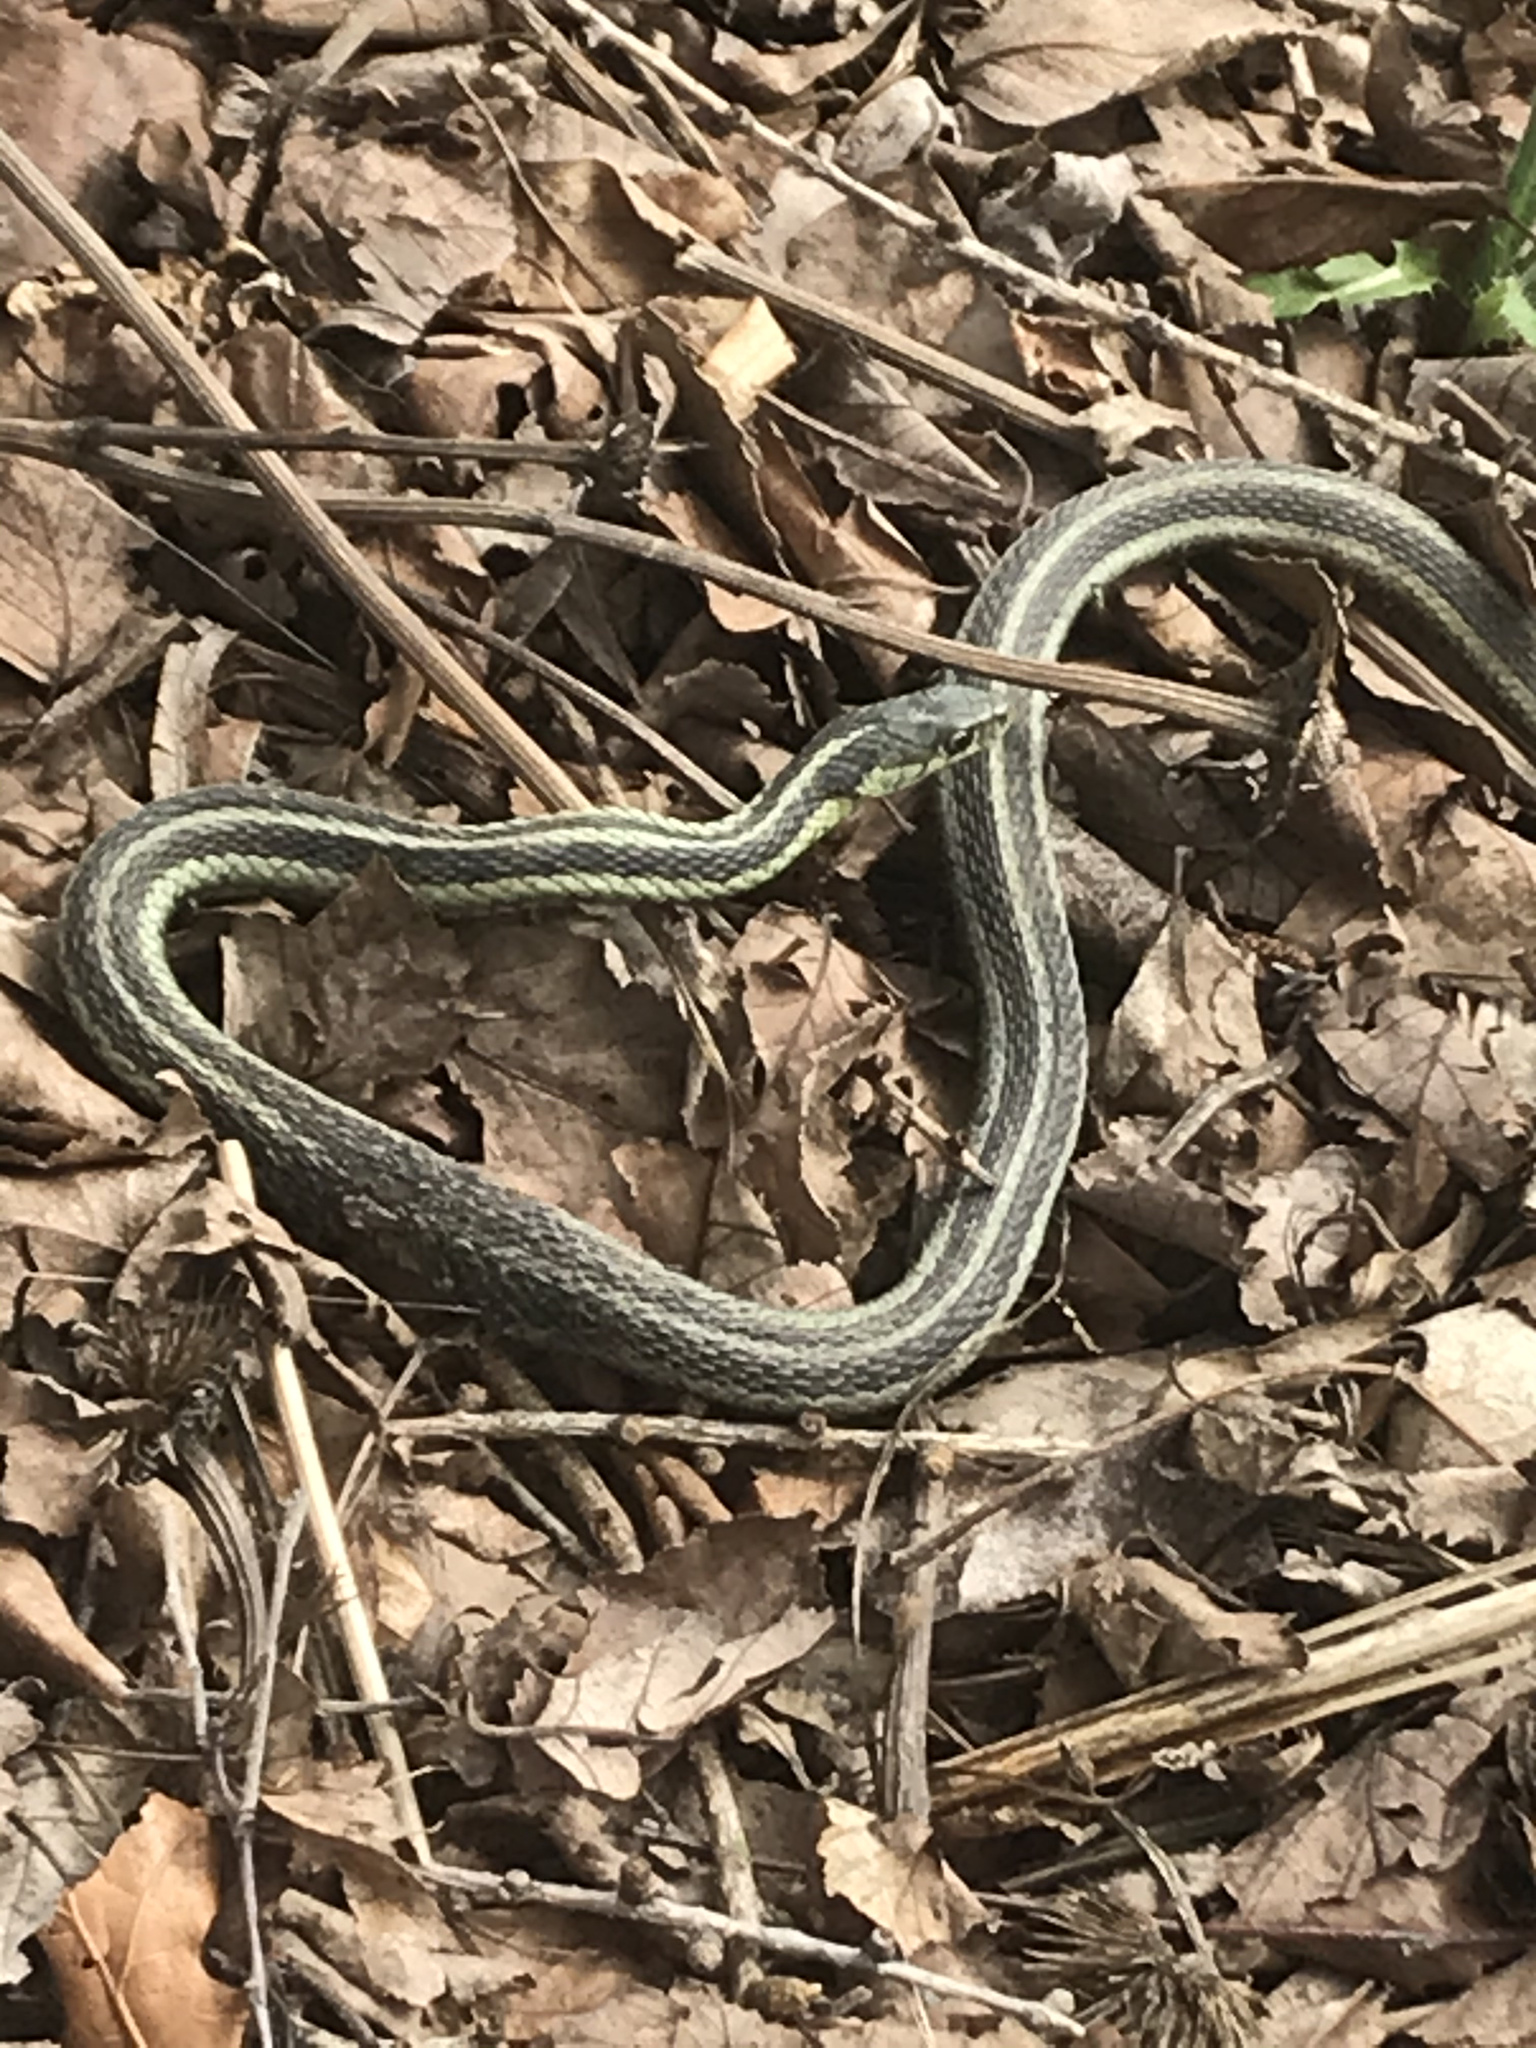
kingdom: Animalia
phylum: Chordata
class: Squamata
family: Colubridae
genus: Thamnophis
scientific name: Thamnophis sirtalis
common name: Common garter snake
